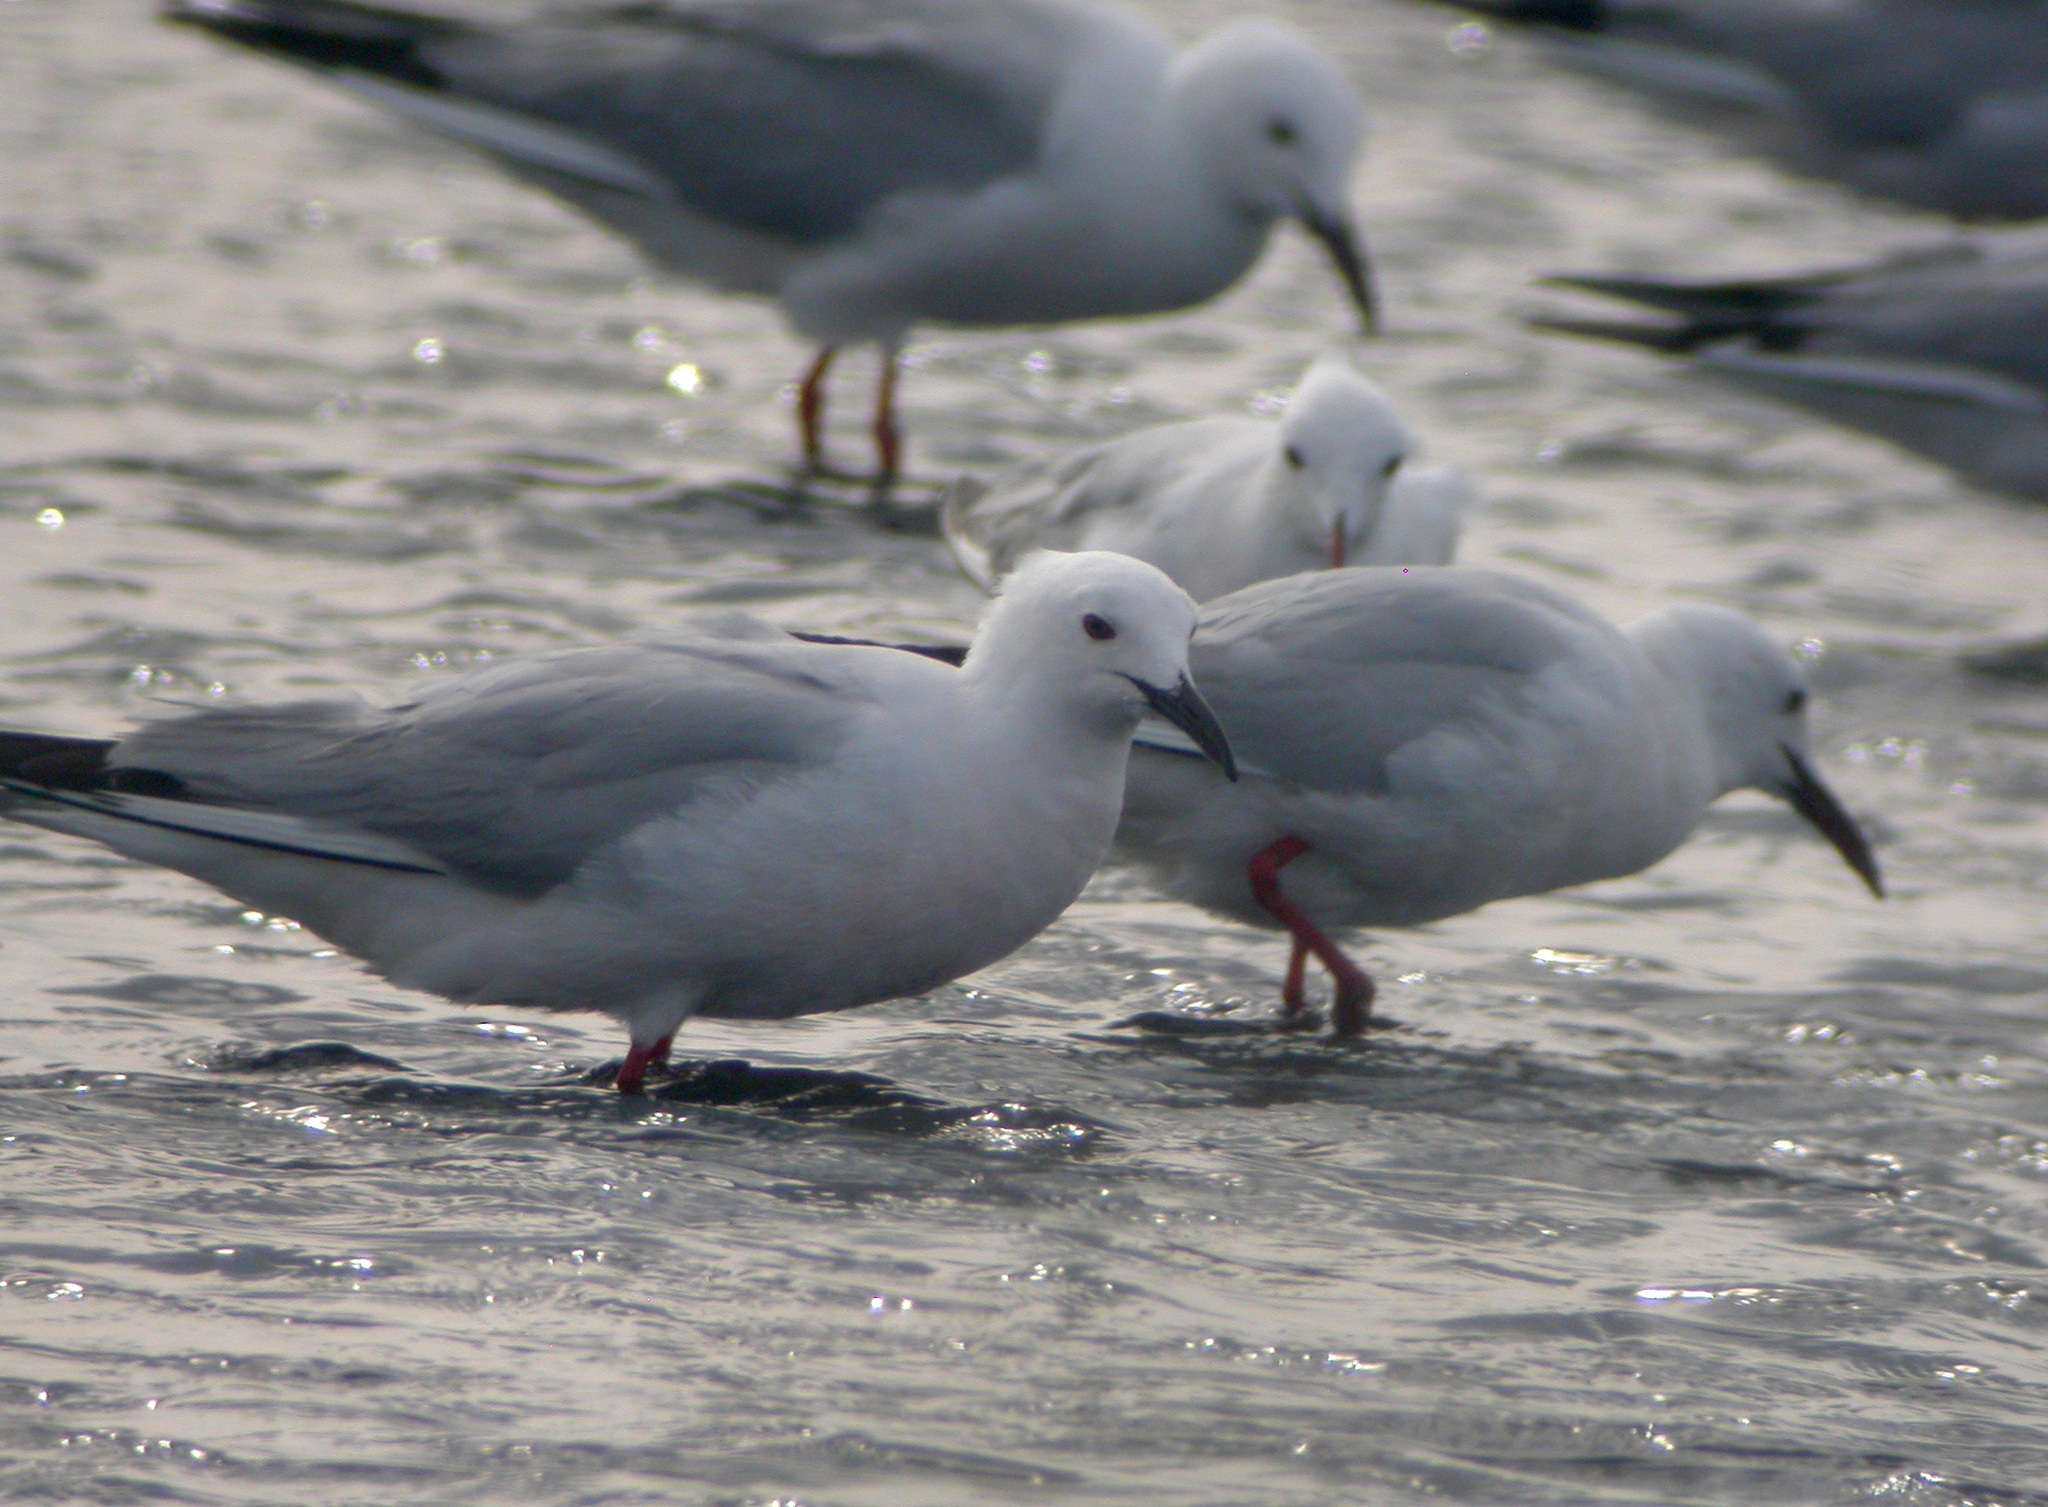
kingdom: Animalia
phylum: Chordata
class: Aves
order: Charadriiformes
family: Laridae
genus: Chroicocephalus
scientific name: Chroicocephalus genei
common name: Slender-billed gull
